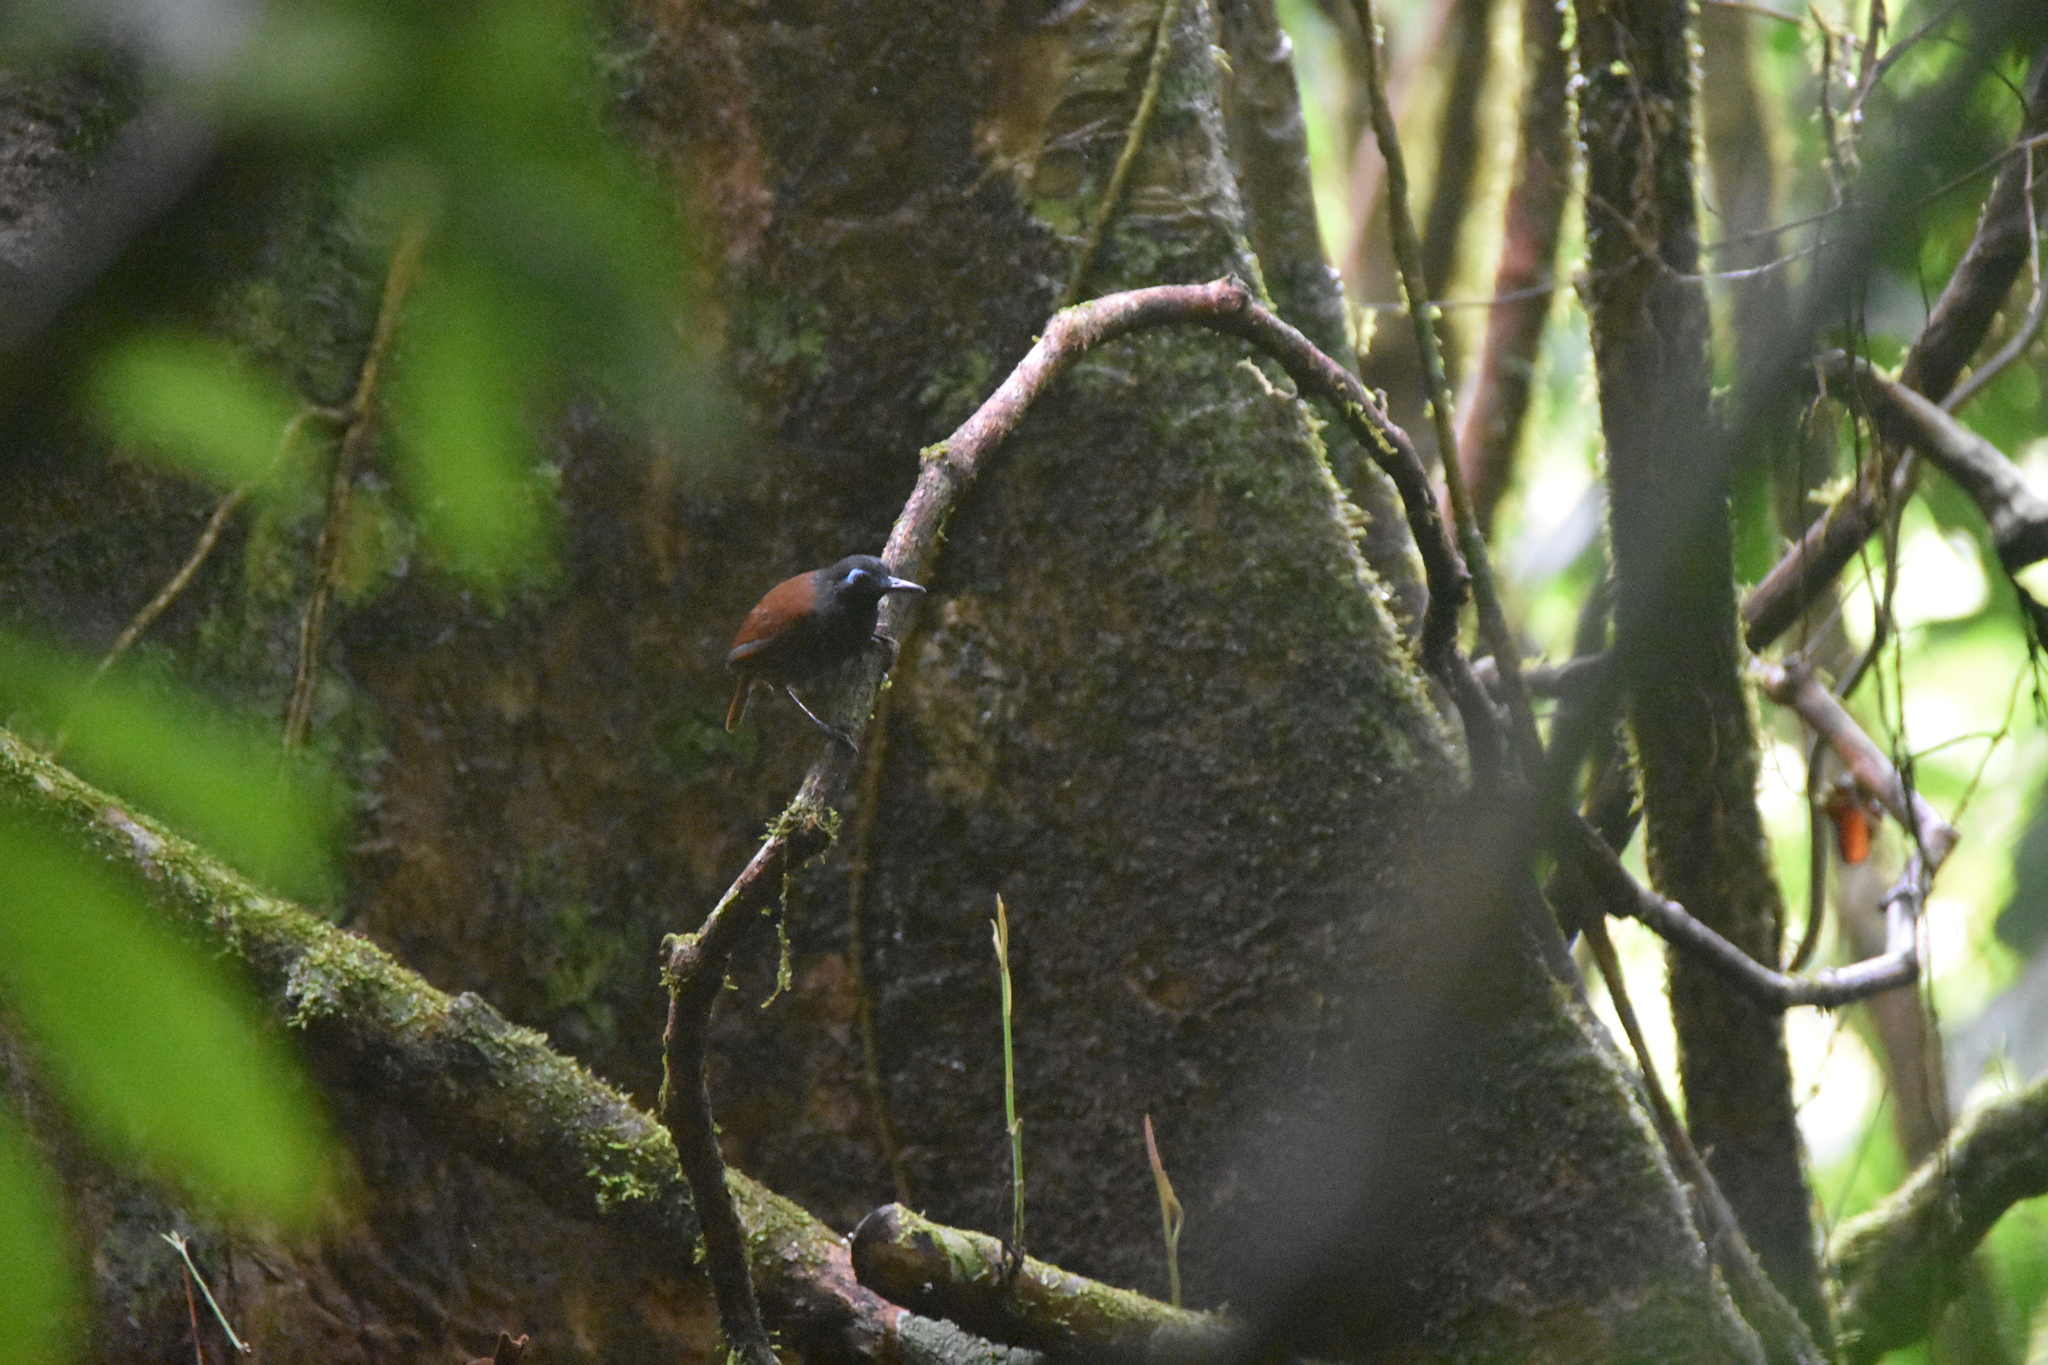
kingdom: Animalia
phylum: Chordata
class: Aves
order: Passeriformes
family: Thamnophilidae
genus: Myrmeciza
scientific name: Myrmeciza exsul
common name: Chestnut-backed antbird
